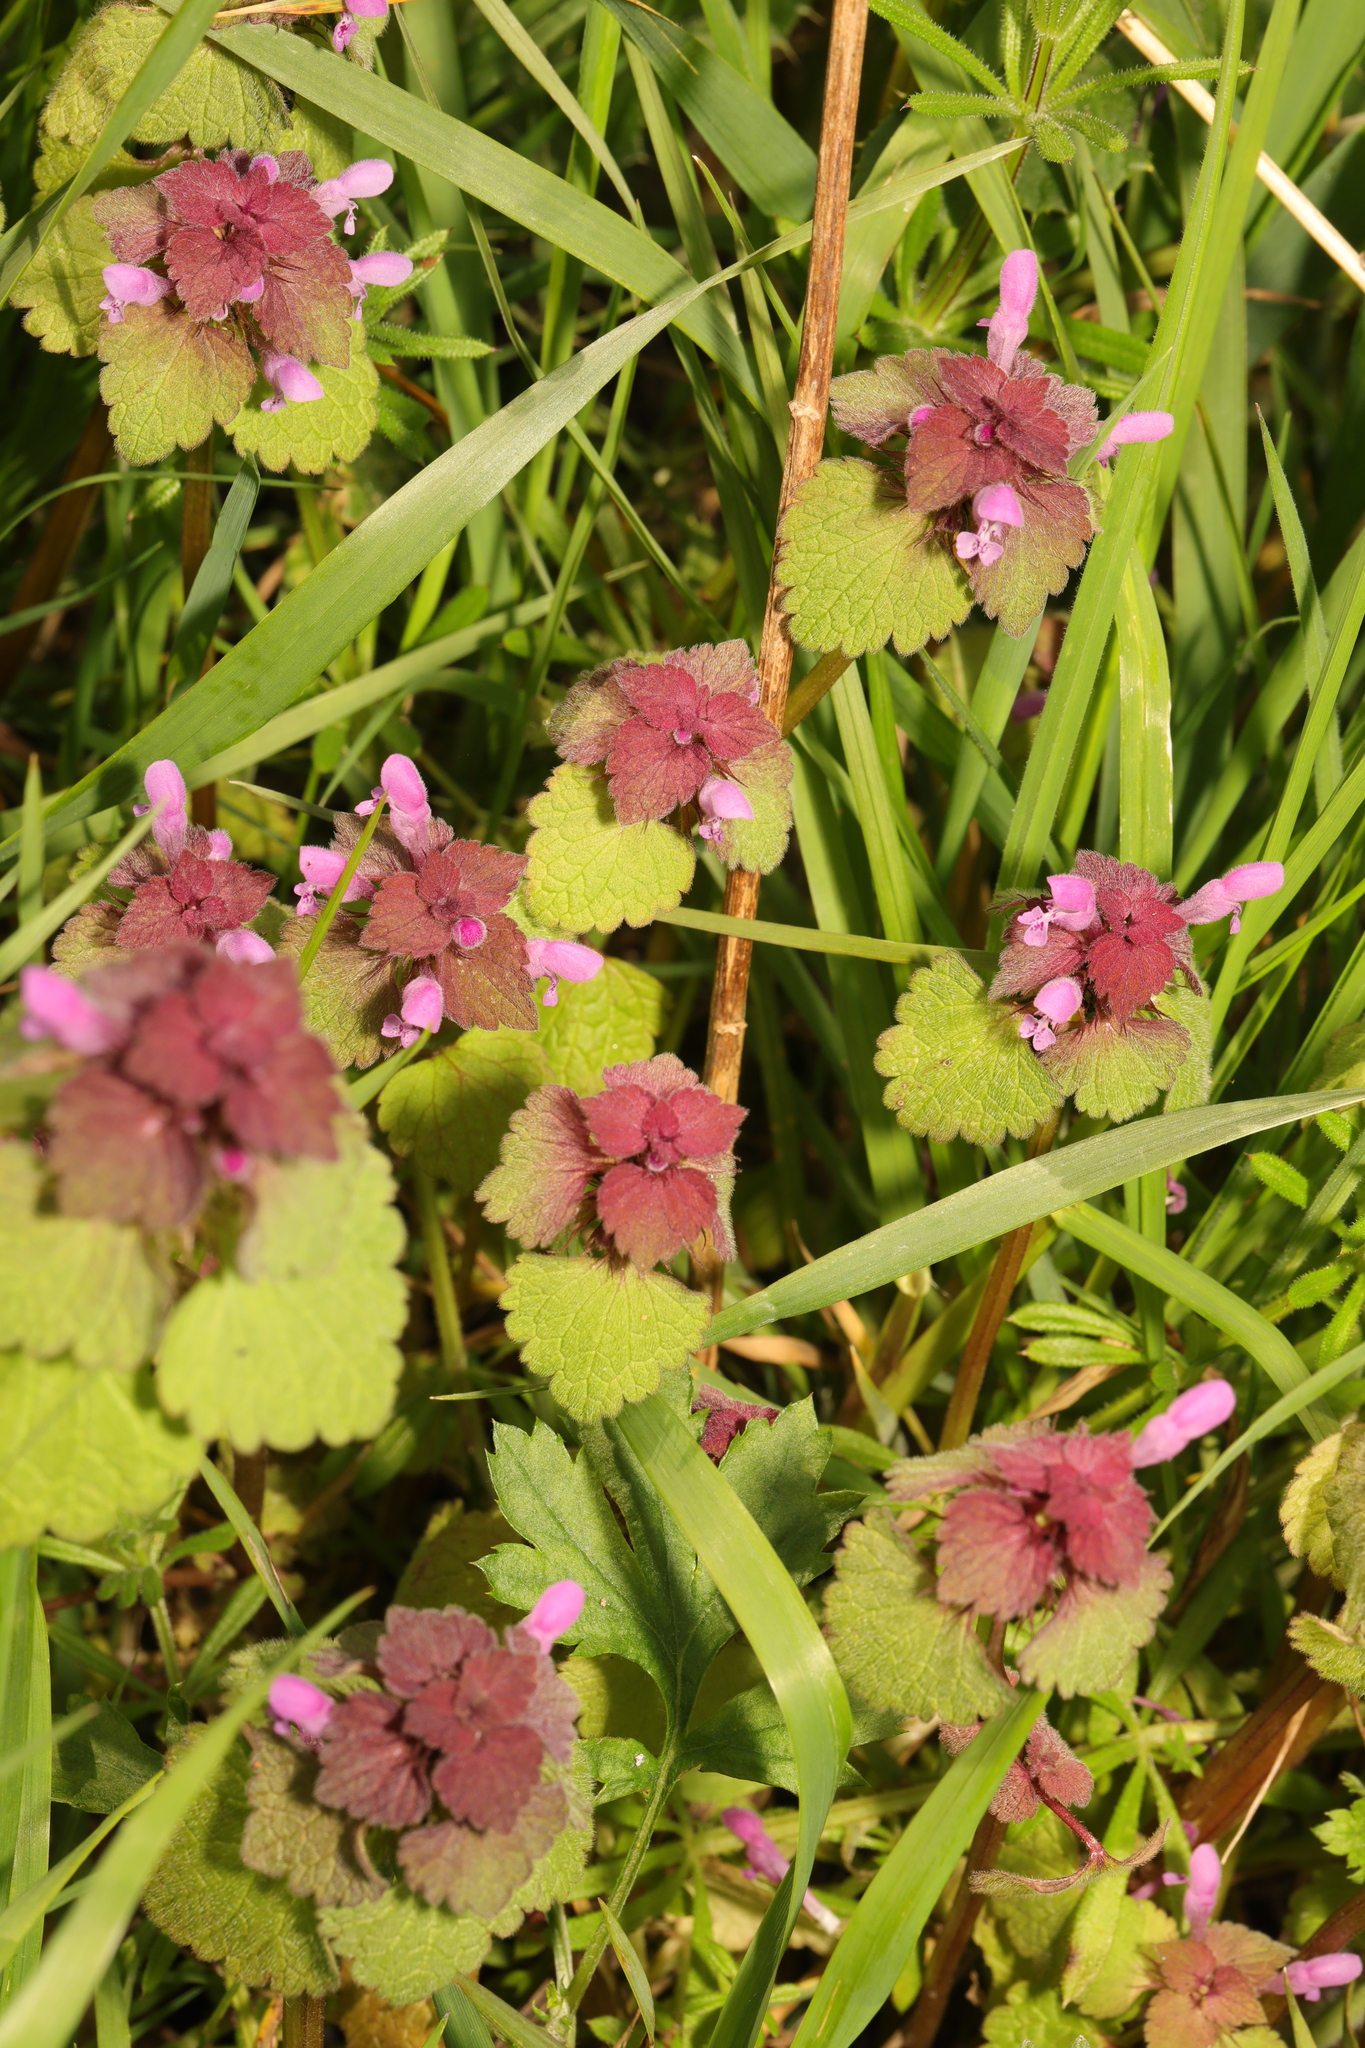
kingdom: Plantae
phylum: Tracheophyta
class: Magnoliopsida
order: Lamiales
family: Lamiaceae
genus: Lamium
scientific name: Lamium purpureum
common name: Red dead-nettle
